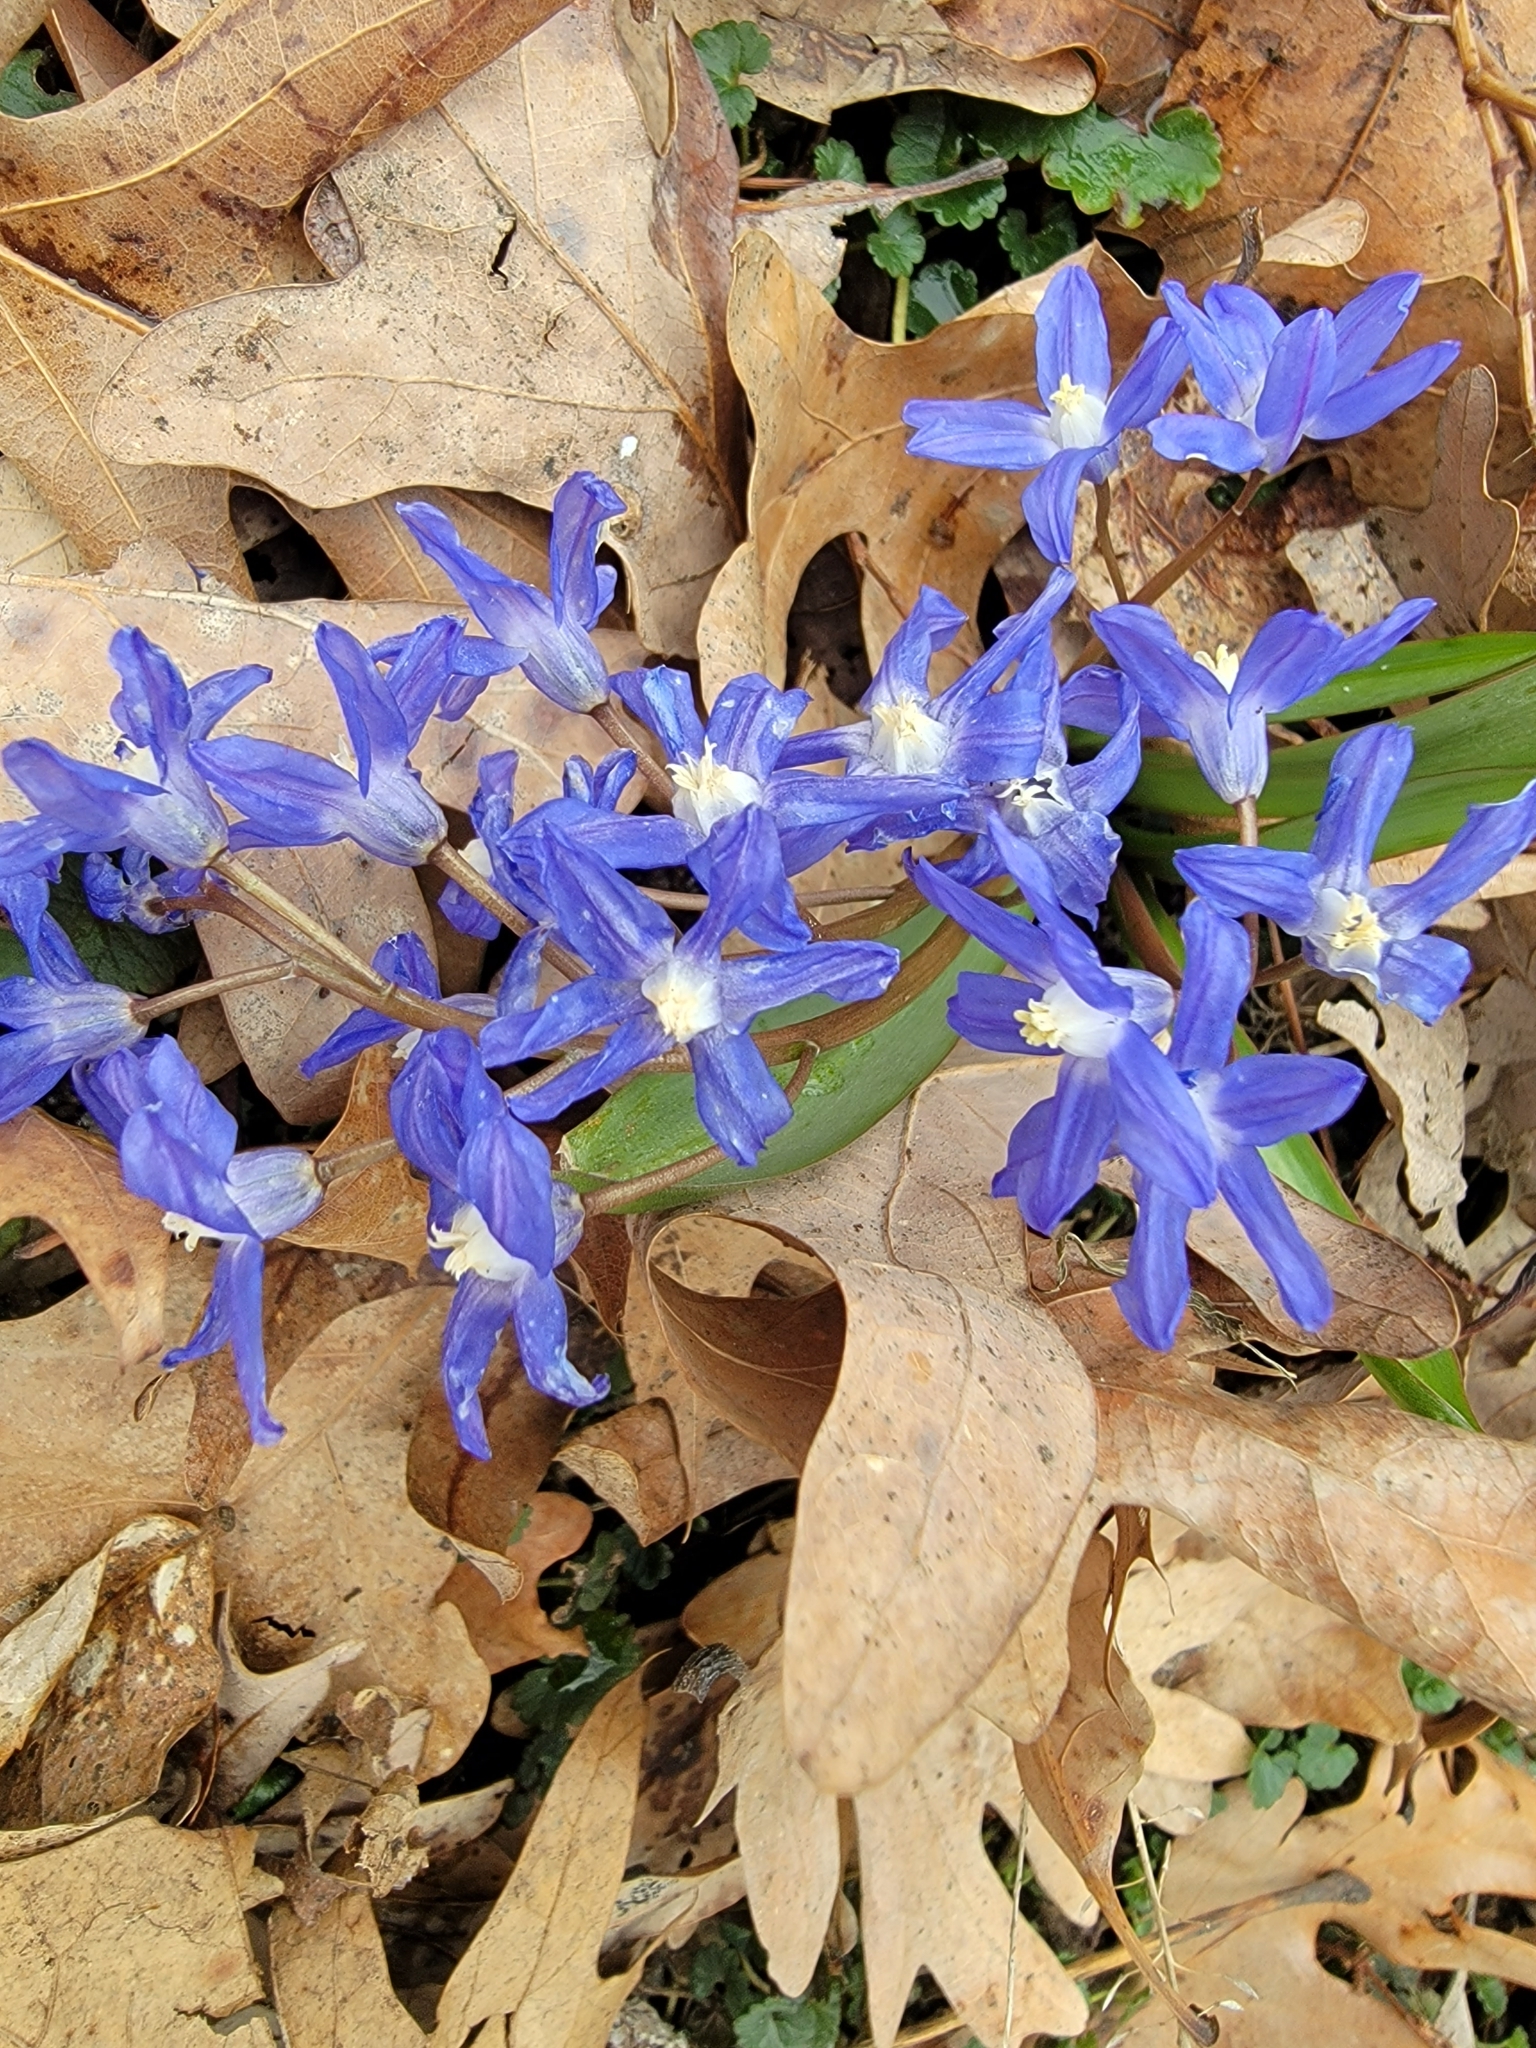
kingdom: Plantae
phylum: Tracheophyta
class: Liliopsida
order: Asparagales
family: Asparagaceae
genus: Scilla
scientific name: Scilla forbesii
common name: Glory-of-the-snow
